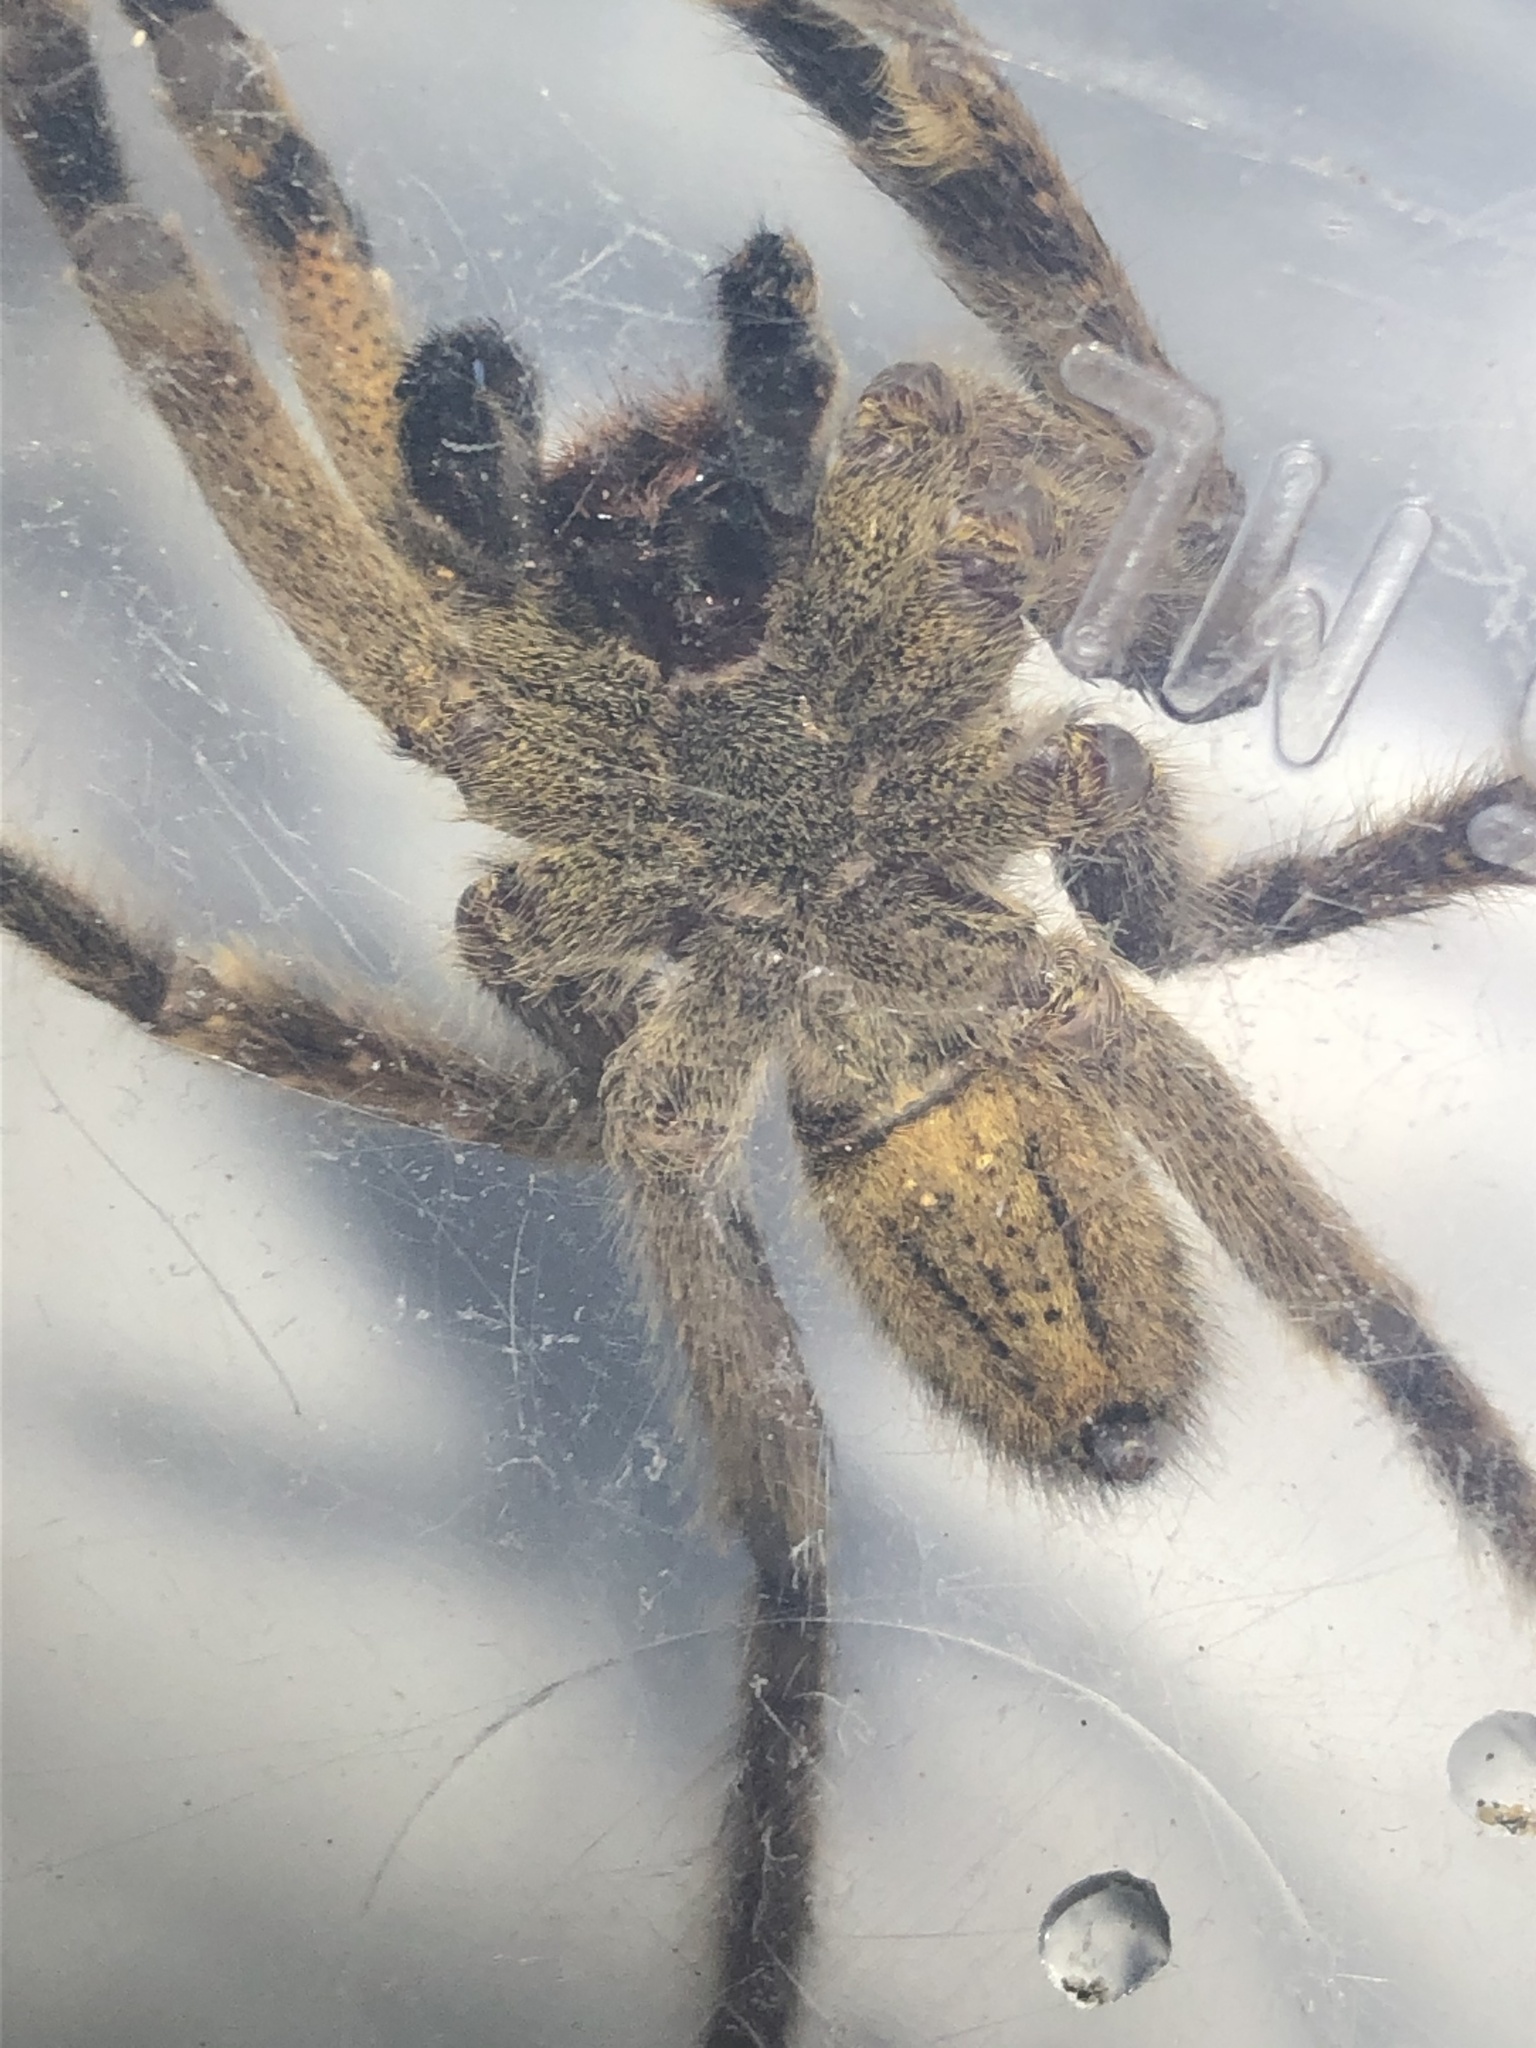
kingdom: Animalia
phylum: Arthropoda
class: Arachnida
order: Araneae
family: Ctenidae
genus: Phoneutria
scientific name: Phoneutria boliviensis
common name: Wandering spiders
